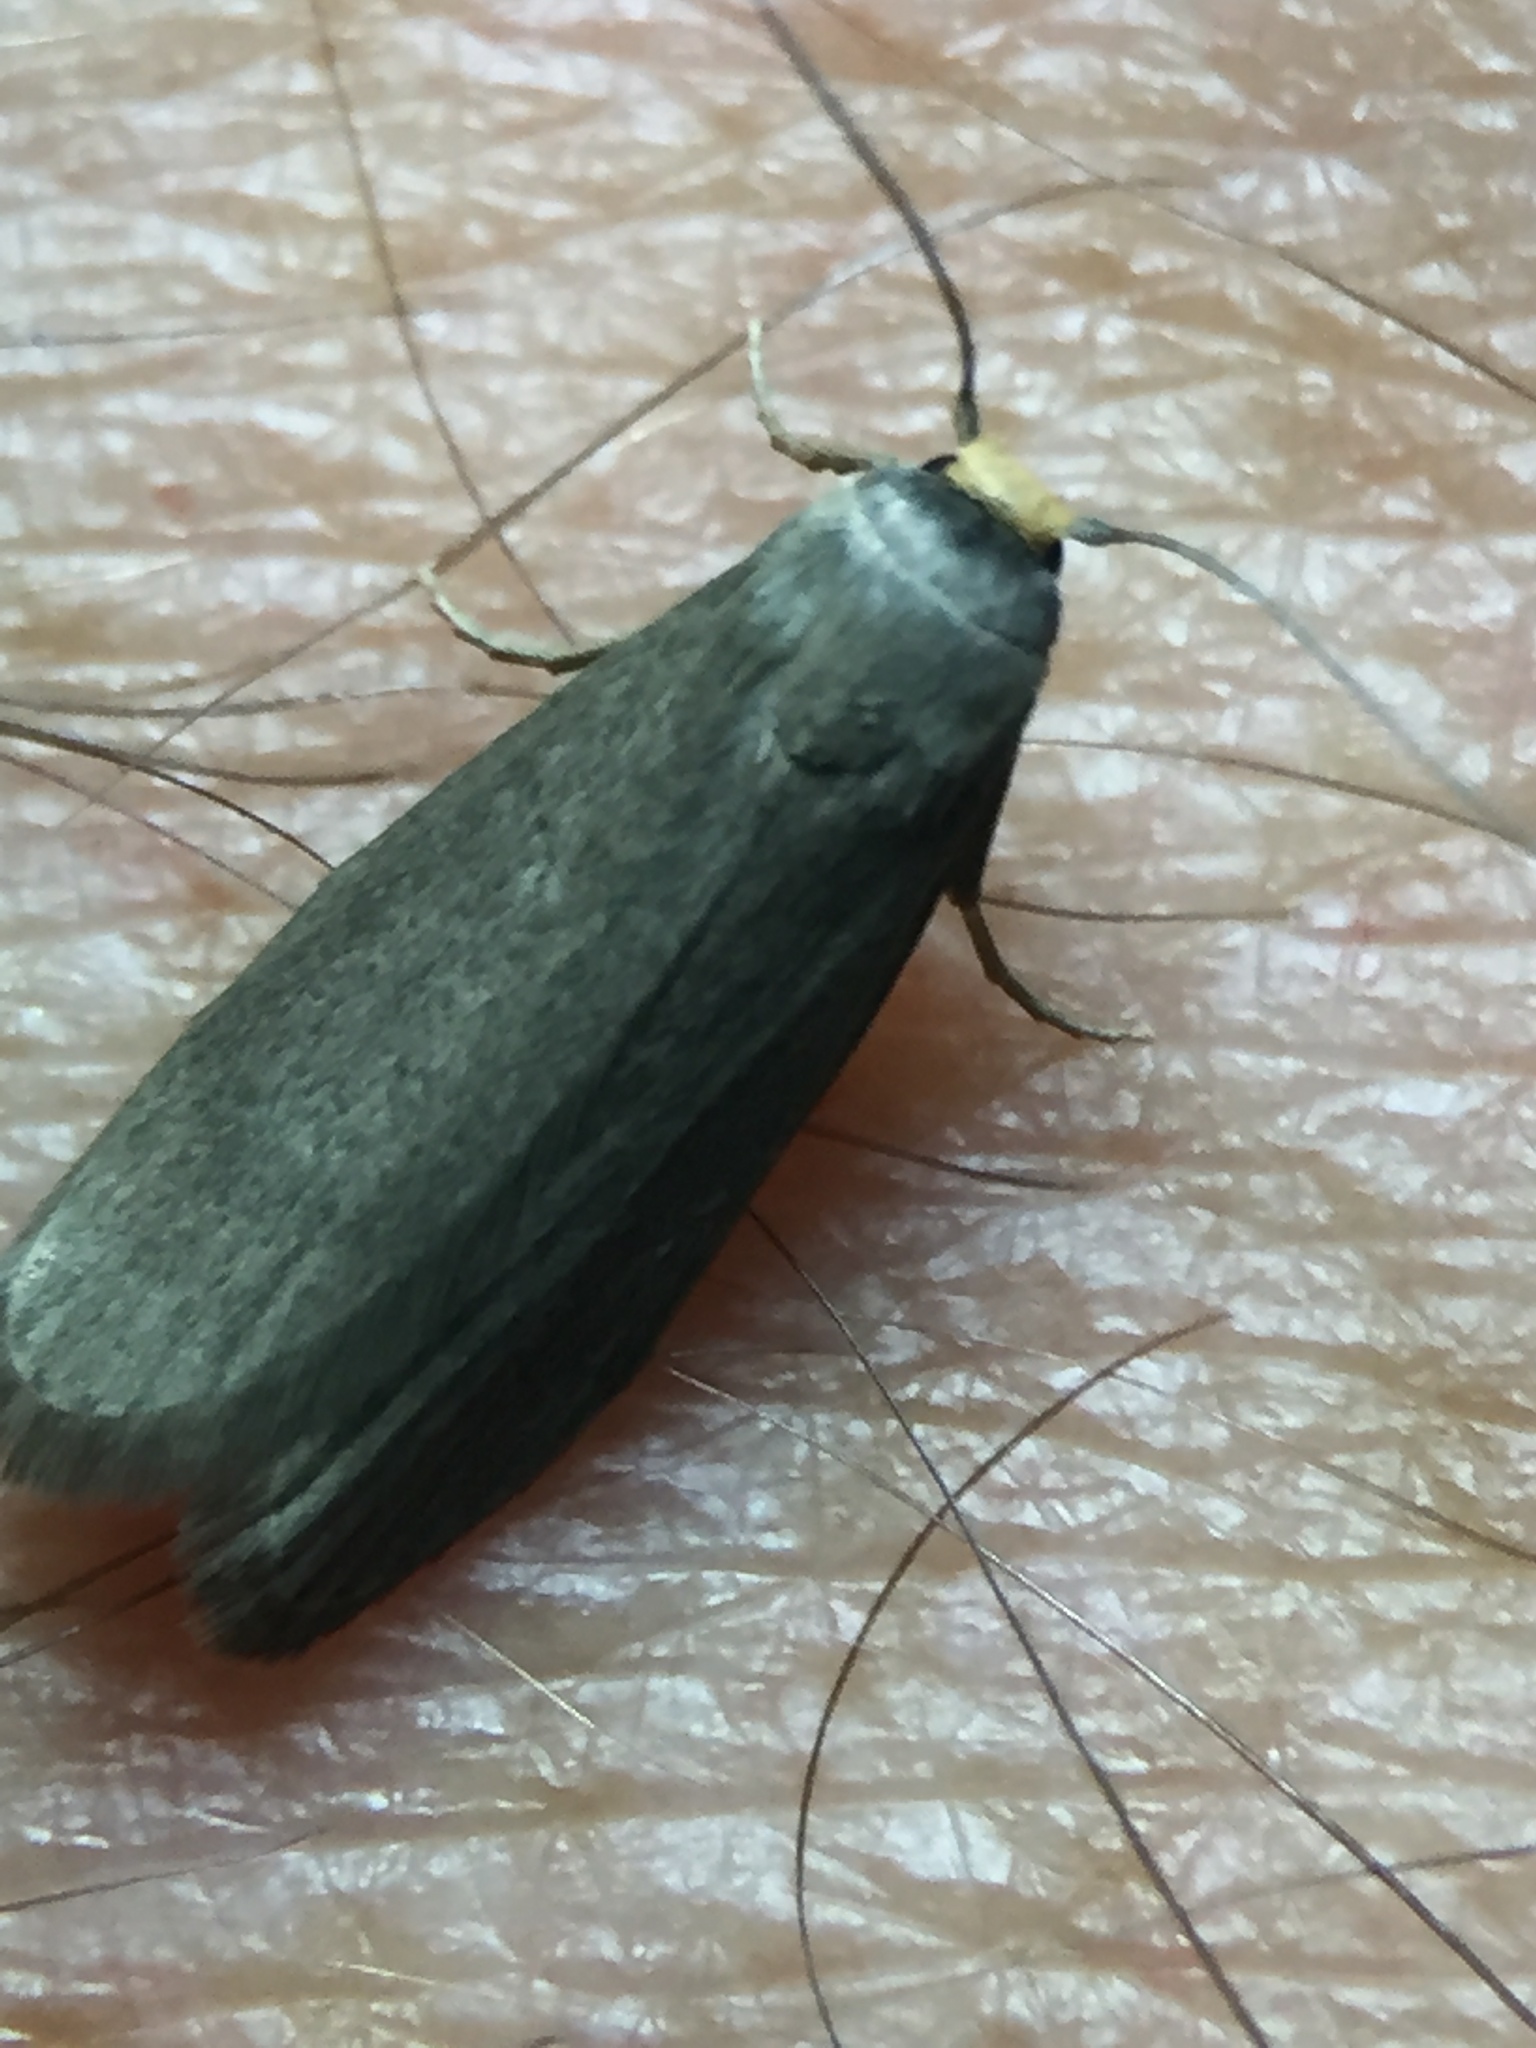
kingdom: Animalia
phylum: Arthropoda
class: Insecta
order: Lepidoptera
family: Pyralidae
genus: Achroia
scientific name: Achroia grisella
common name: Lesser wax moth
